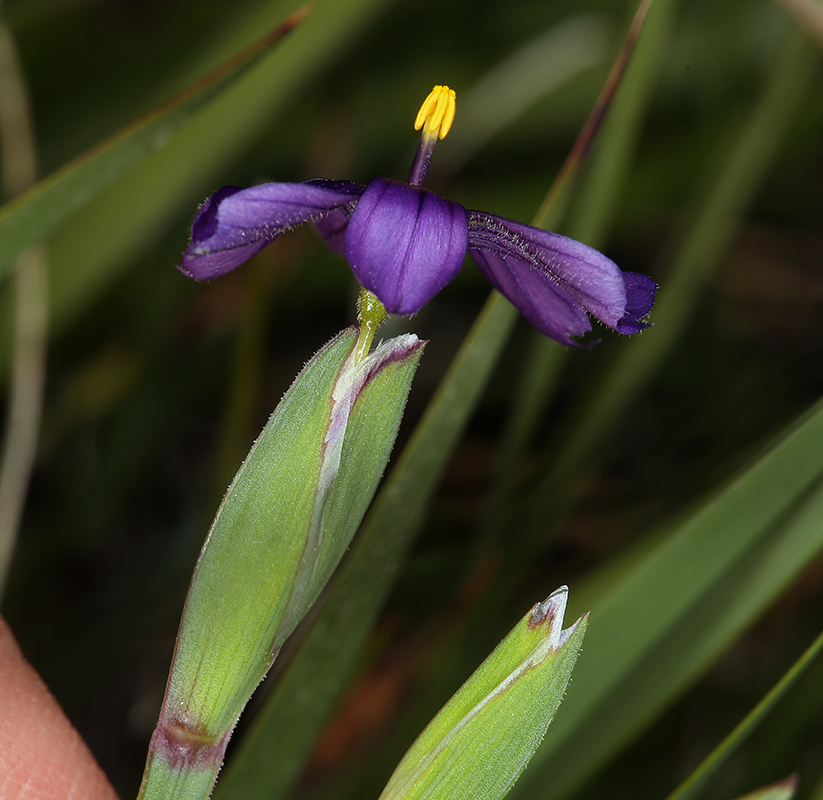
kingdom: Plantae
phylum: Tracheophyta
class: Liliopsida
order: Asparagales
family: Iridaceae
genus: Sisyrinchium
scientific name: Sisyrinchium halophilum
